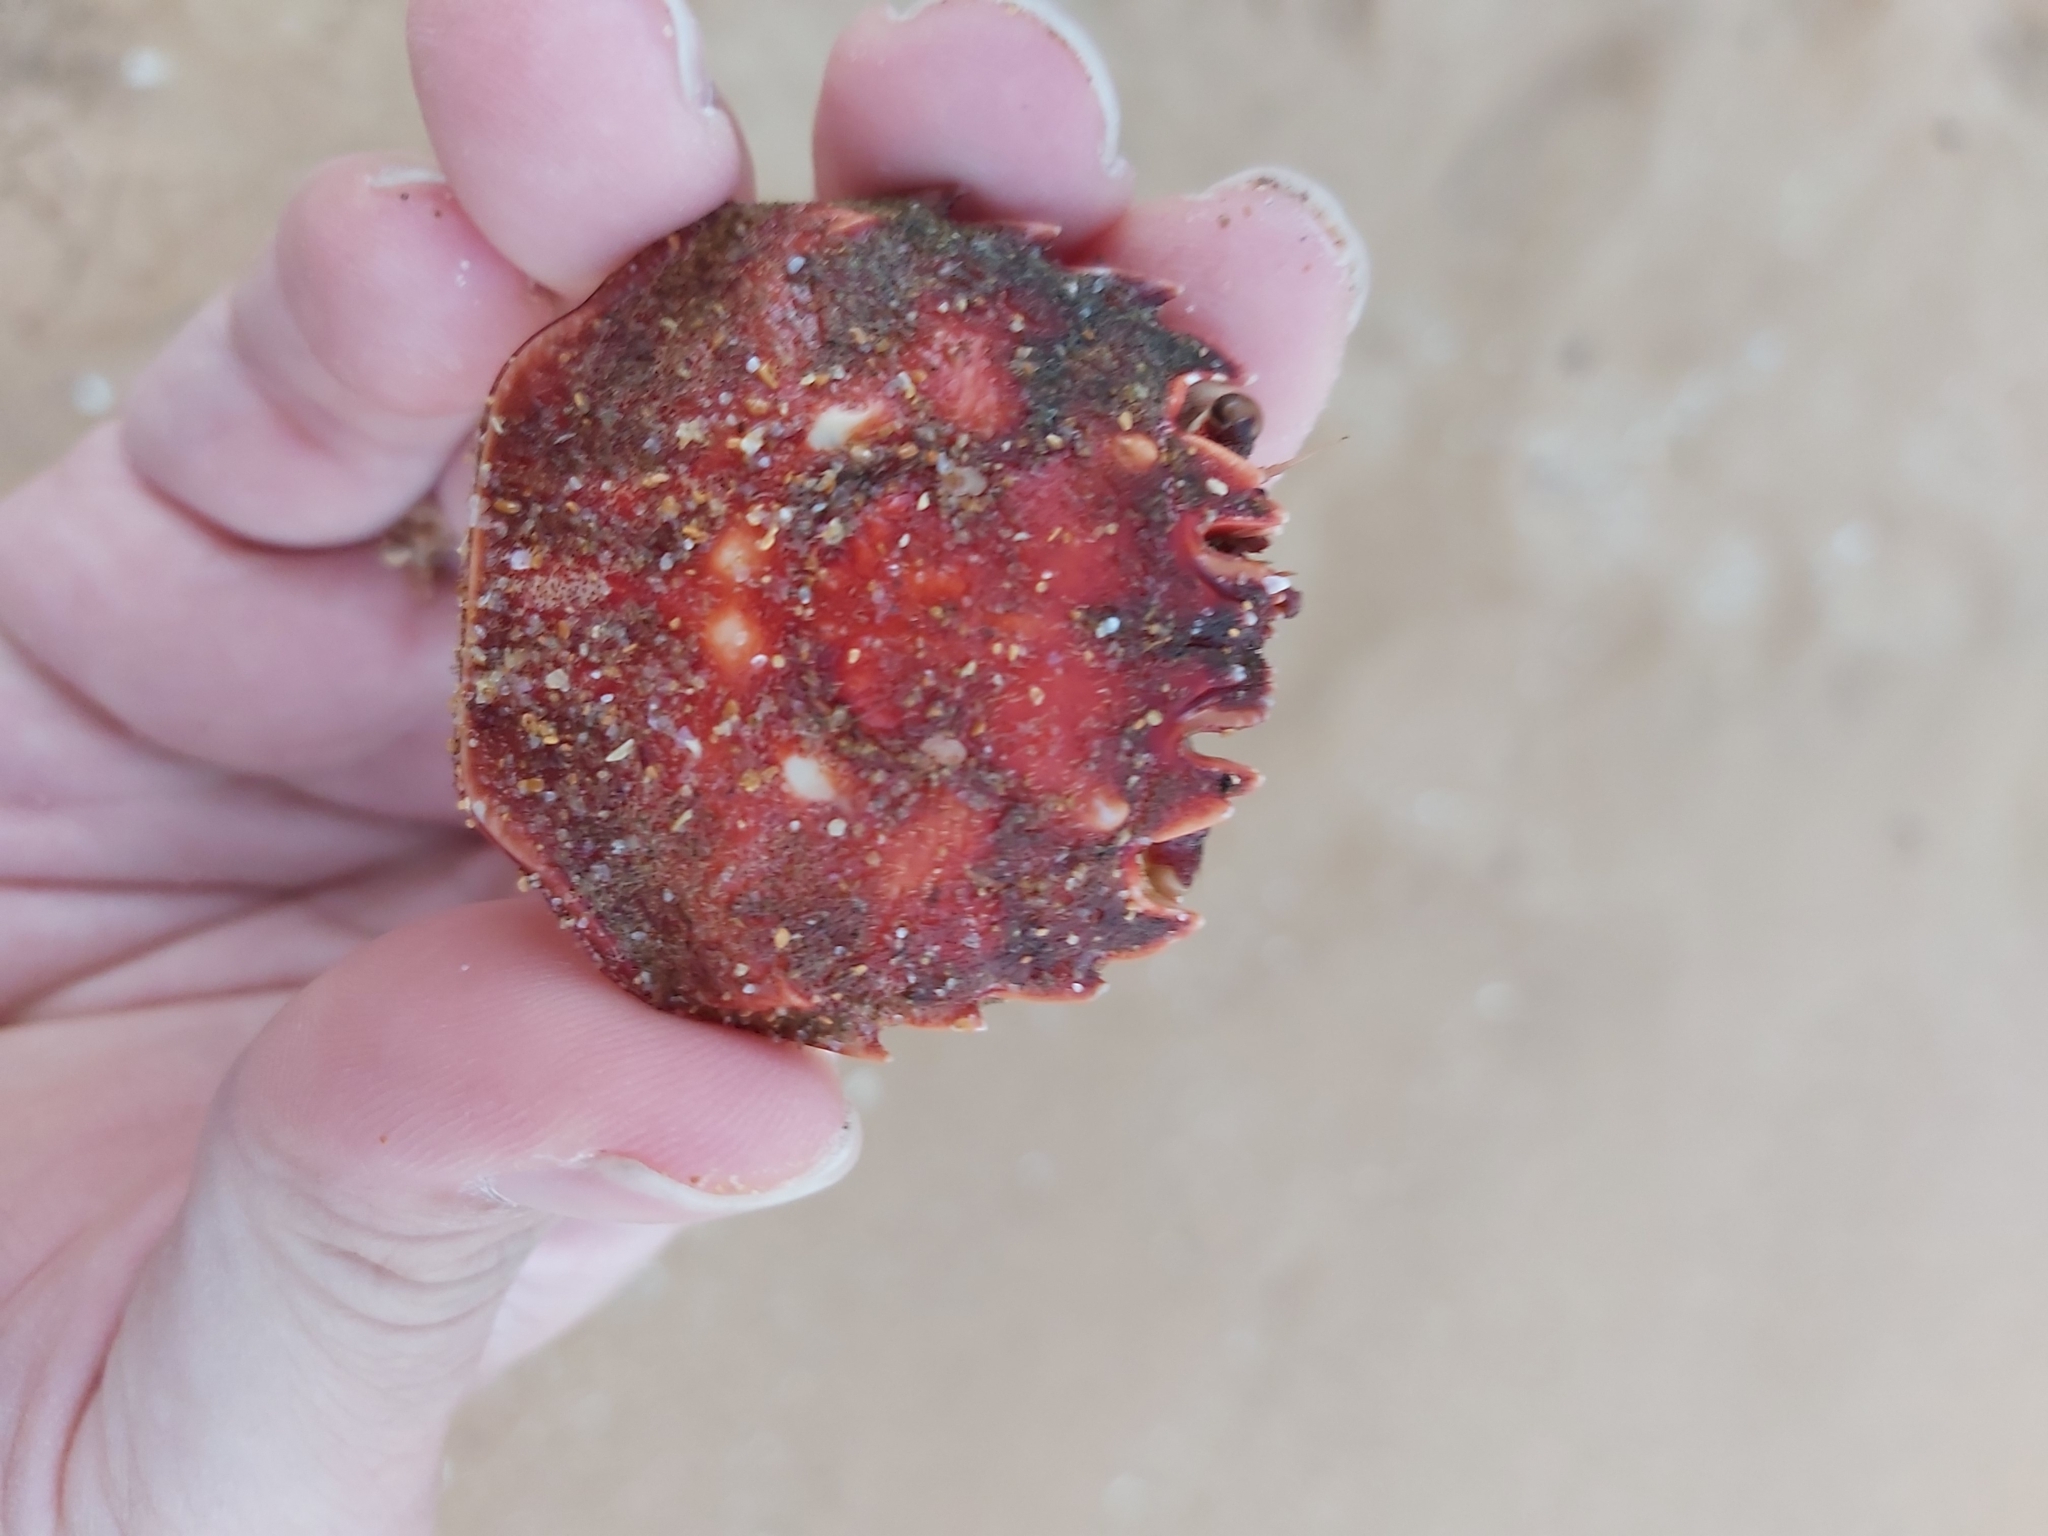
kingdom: Animalia
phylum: Arthropoda
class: Malacostraca
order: Decapoda
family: Plagusiidae
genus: Guinusia
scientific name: Guinusia chabrus
